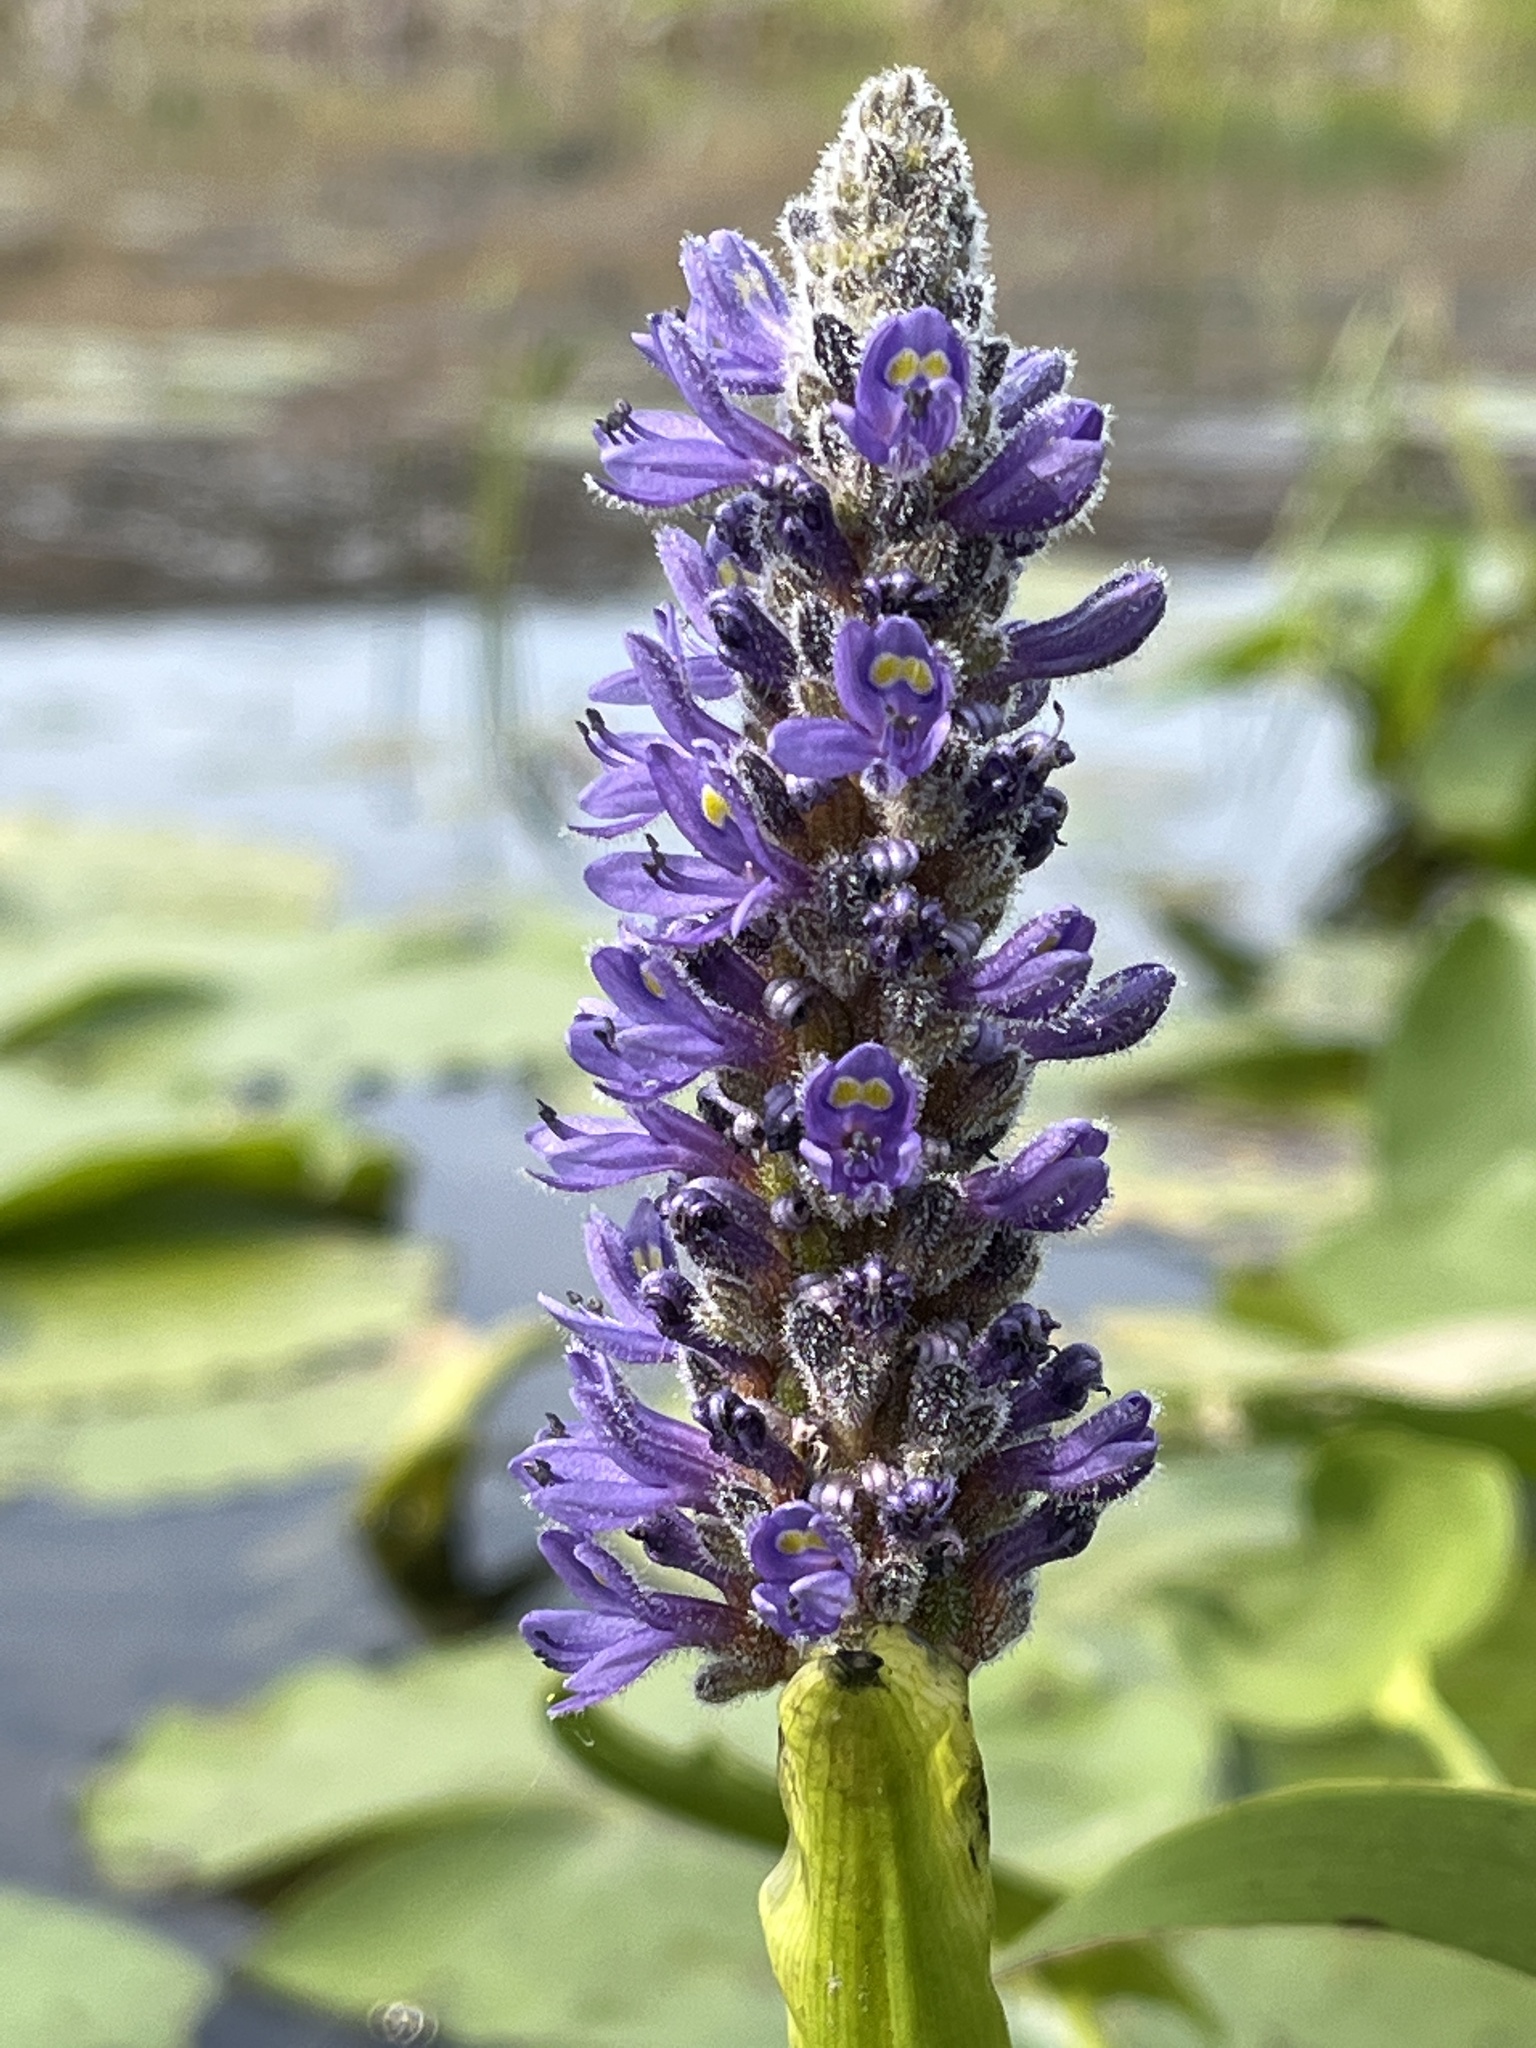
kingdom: Plantae
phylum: Tracheophyta
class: Liliopsida
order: Commelinales
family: Pontederiaceae
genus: Pontederia
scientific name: Pontederia cordata
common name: Pickerelweed
